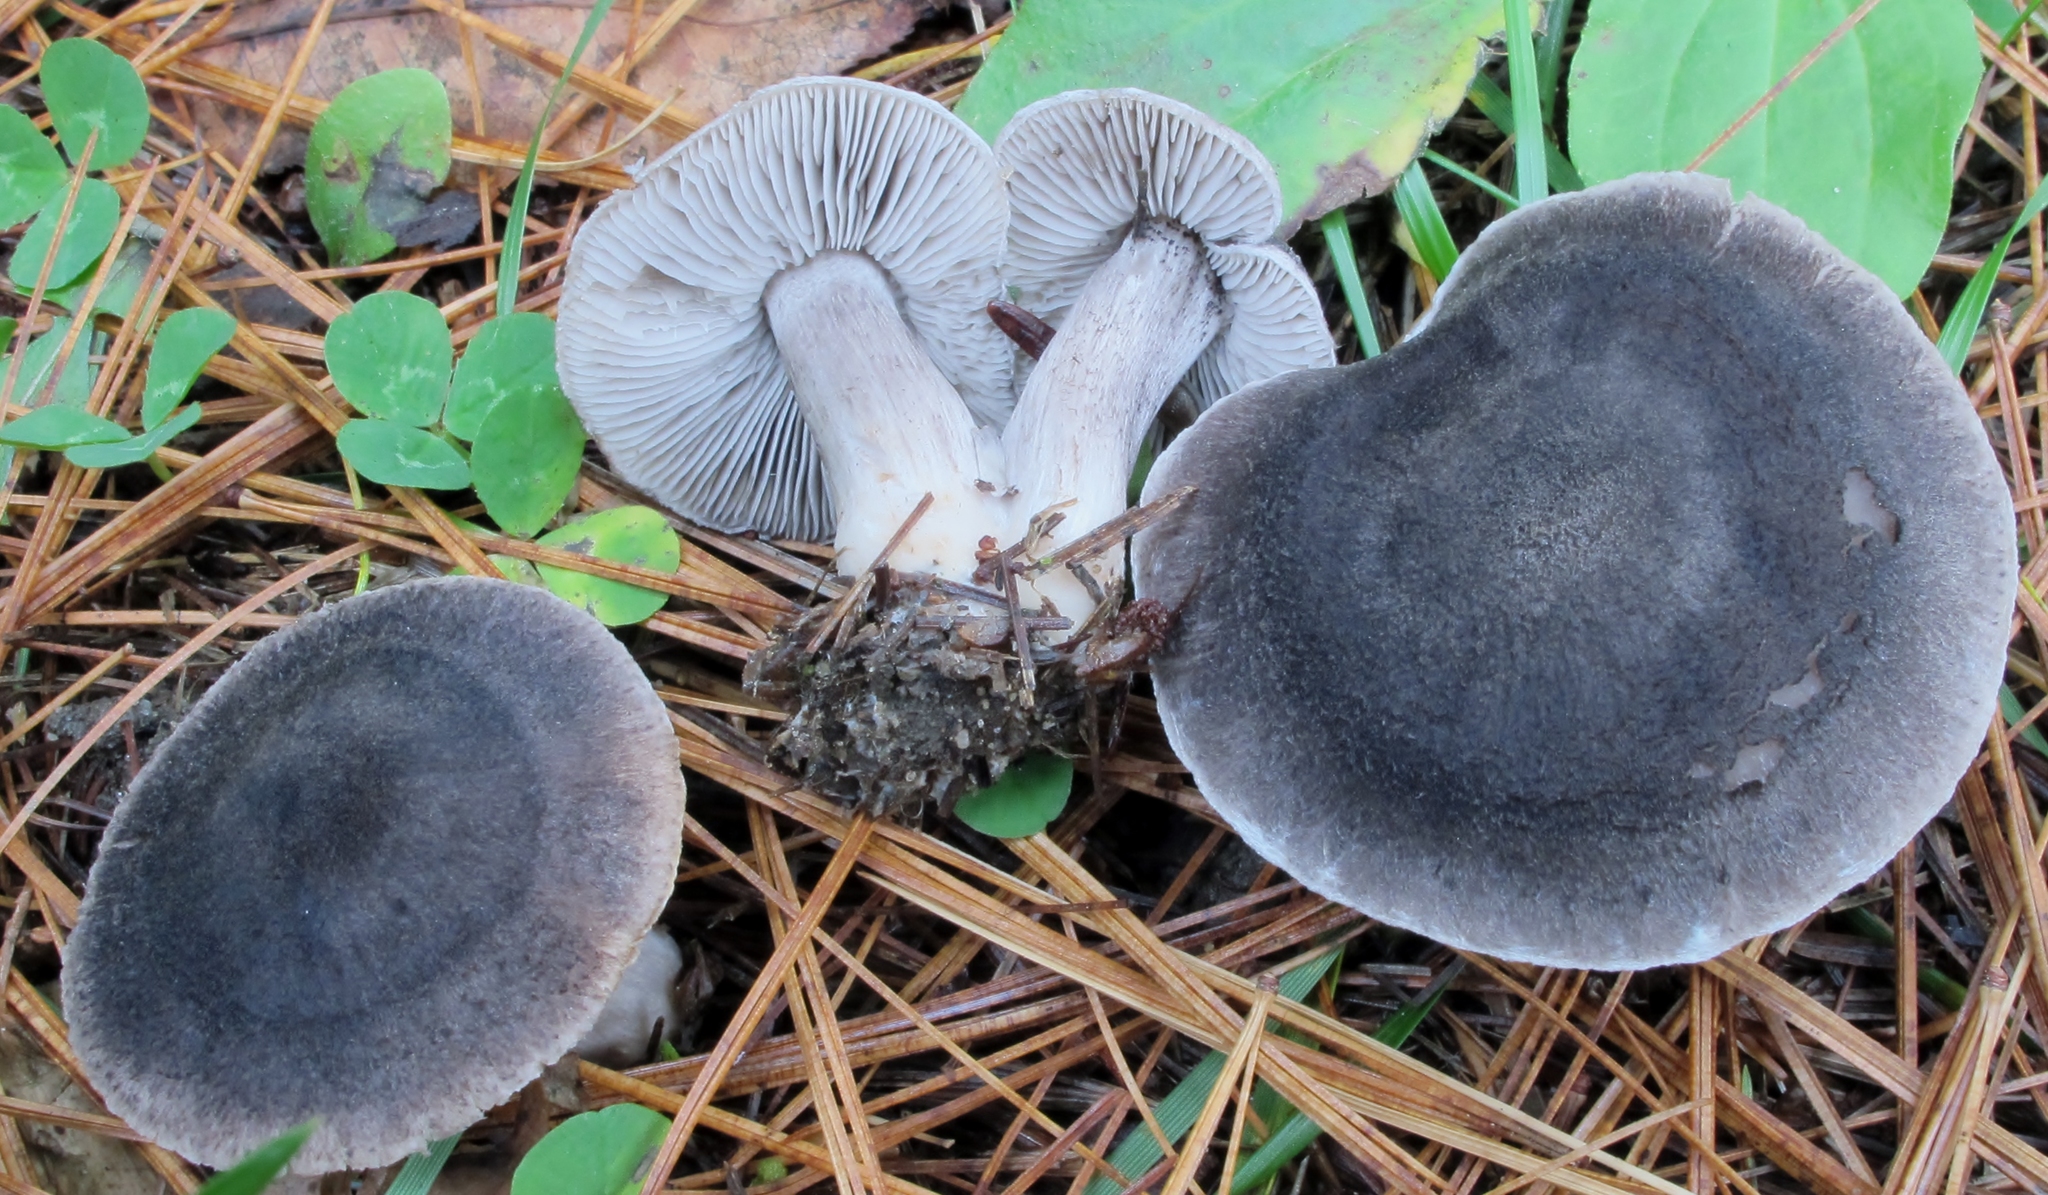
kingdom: Fungi
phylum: Basidiomycota
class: Agaricomycetes
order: Agaricales
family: Tricholomataceae
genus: Tricholoma
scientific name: Tricholoma terreum
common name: Grey knight
